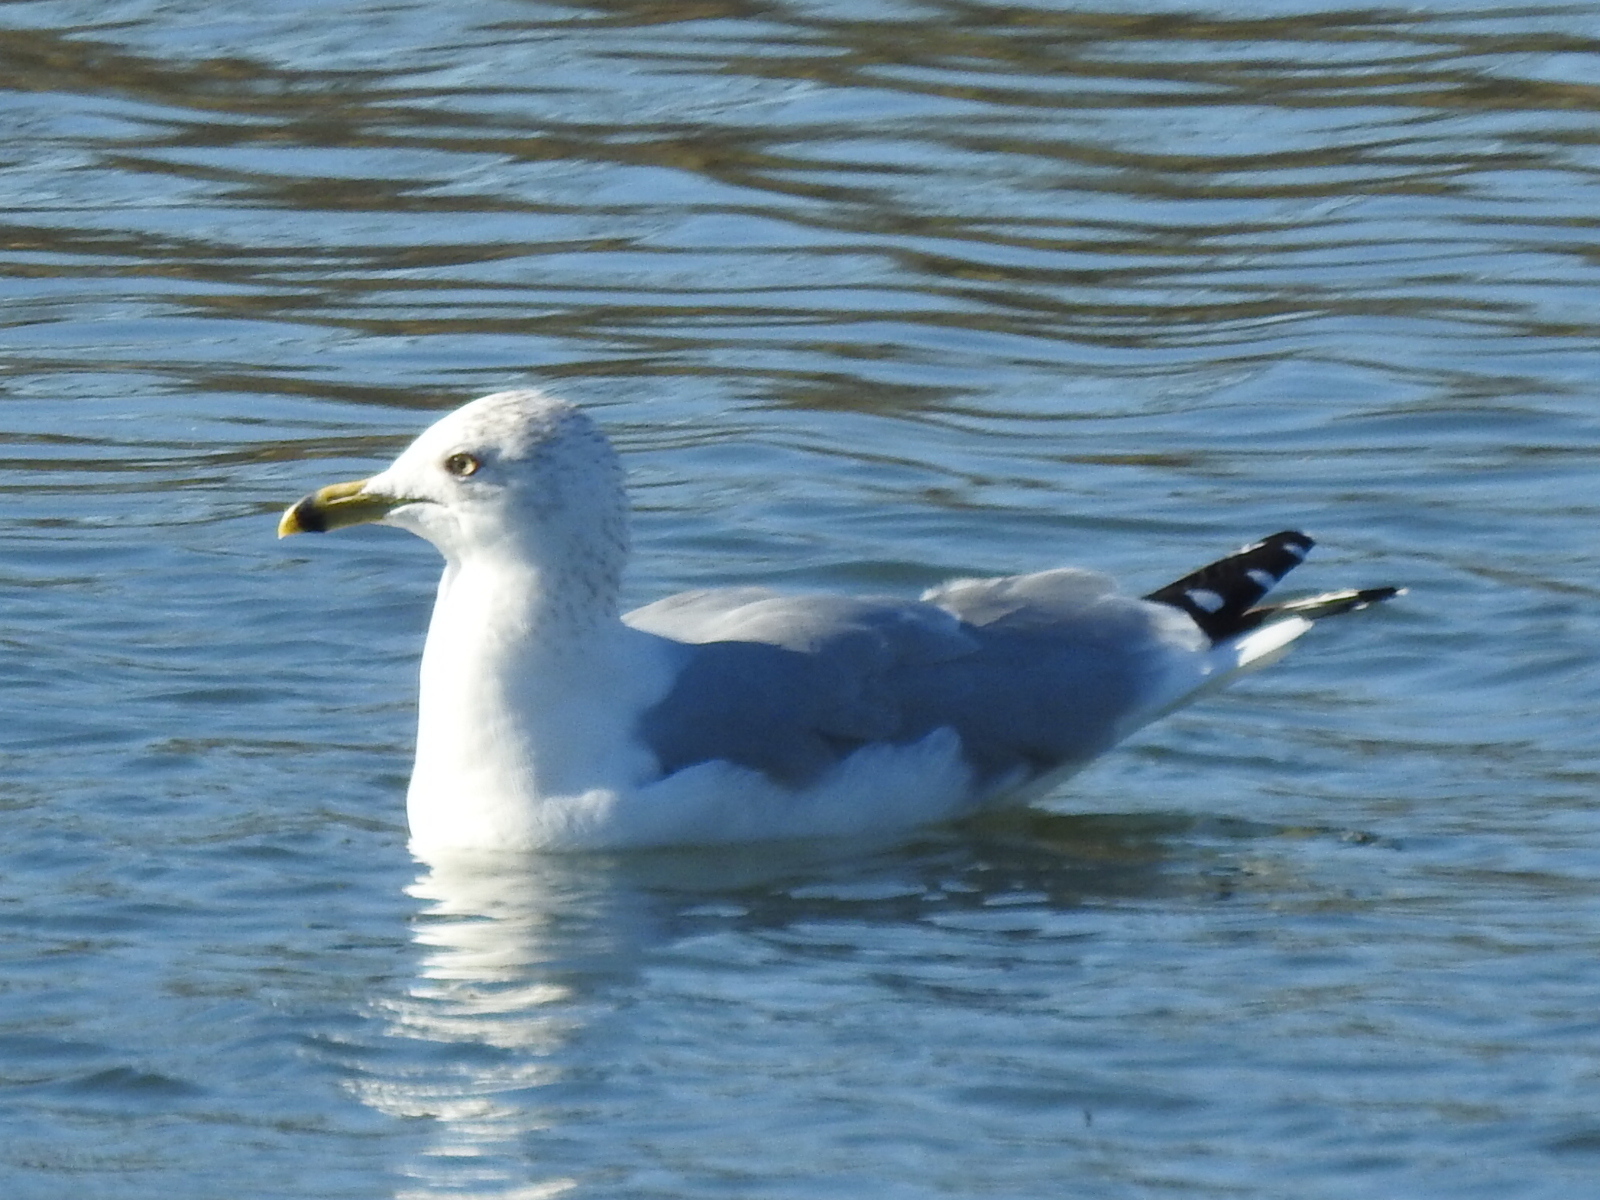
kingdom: Animalia
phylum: Chordata
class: Aves
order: Charadriiformes
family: Laridae
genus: Larus
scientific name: Larus delawarensis
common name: Ring-billed gull
